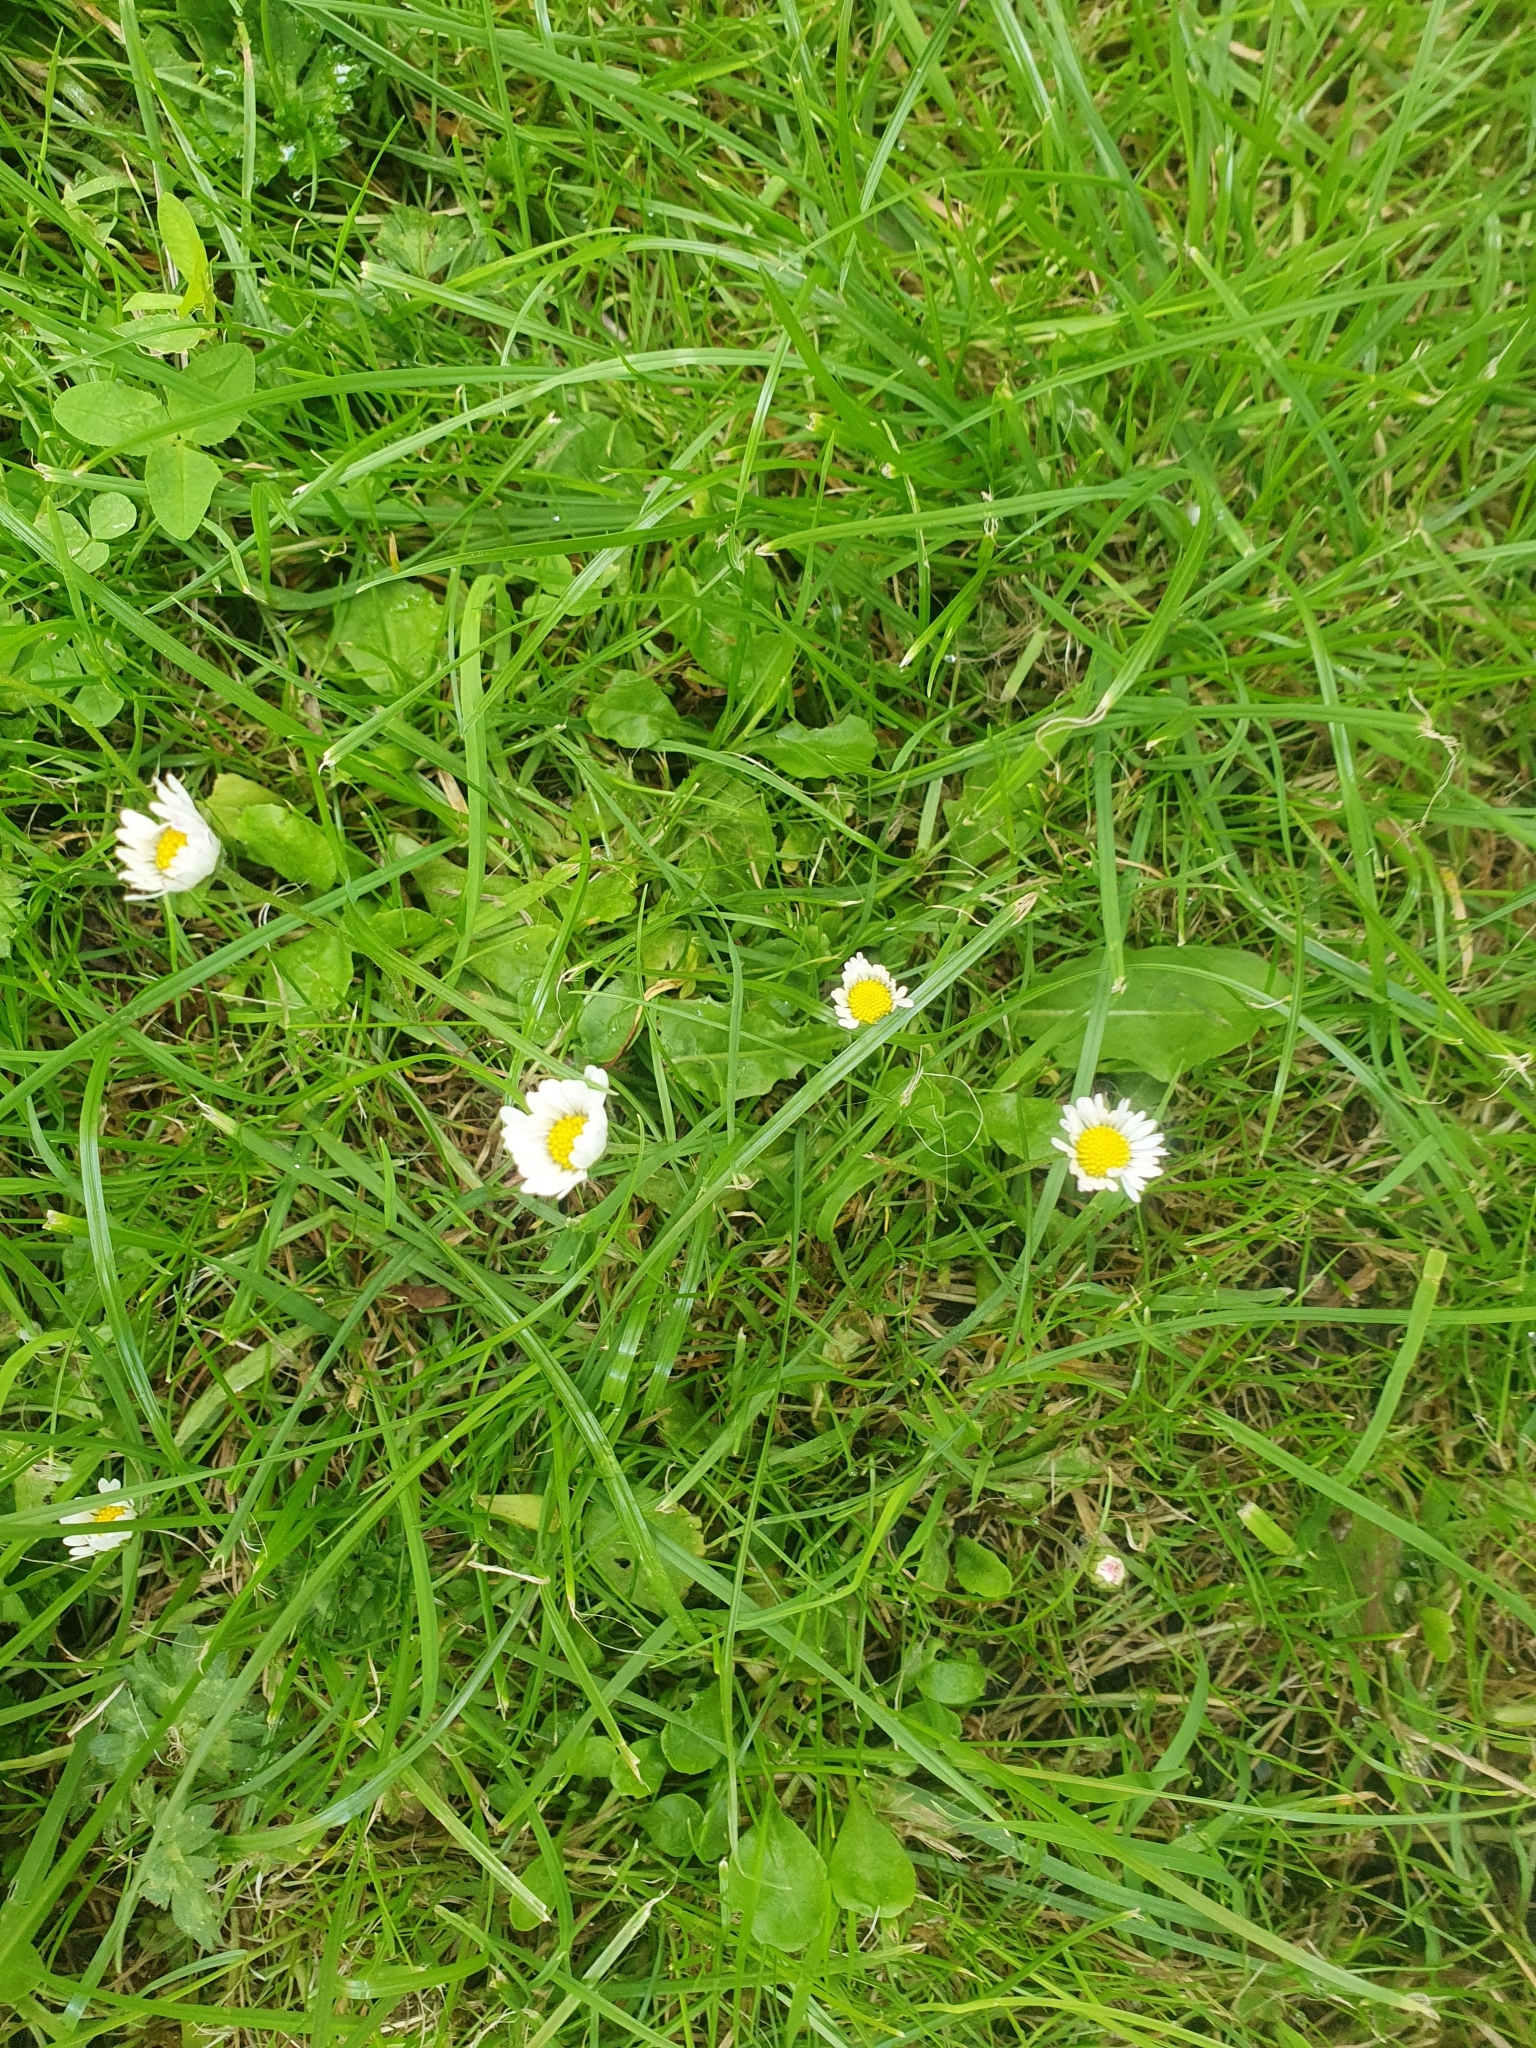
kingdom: Plantae
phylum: Tracheophyta
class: Magnoliopsida
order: Asterales
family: Asteraceae
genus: Bellis
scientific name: Bellis perennis
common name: Lawndaisy
